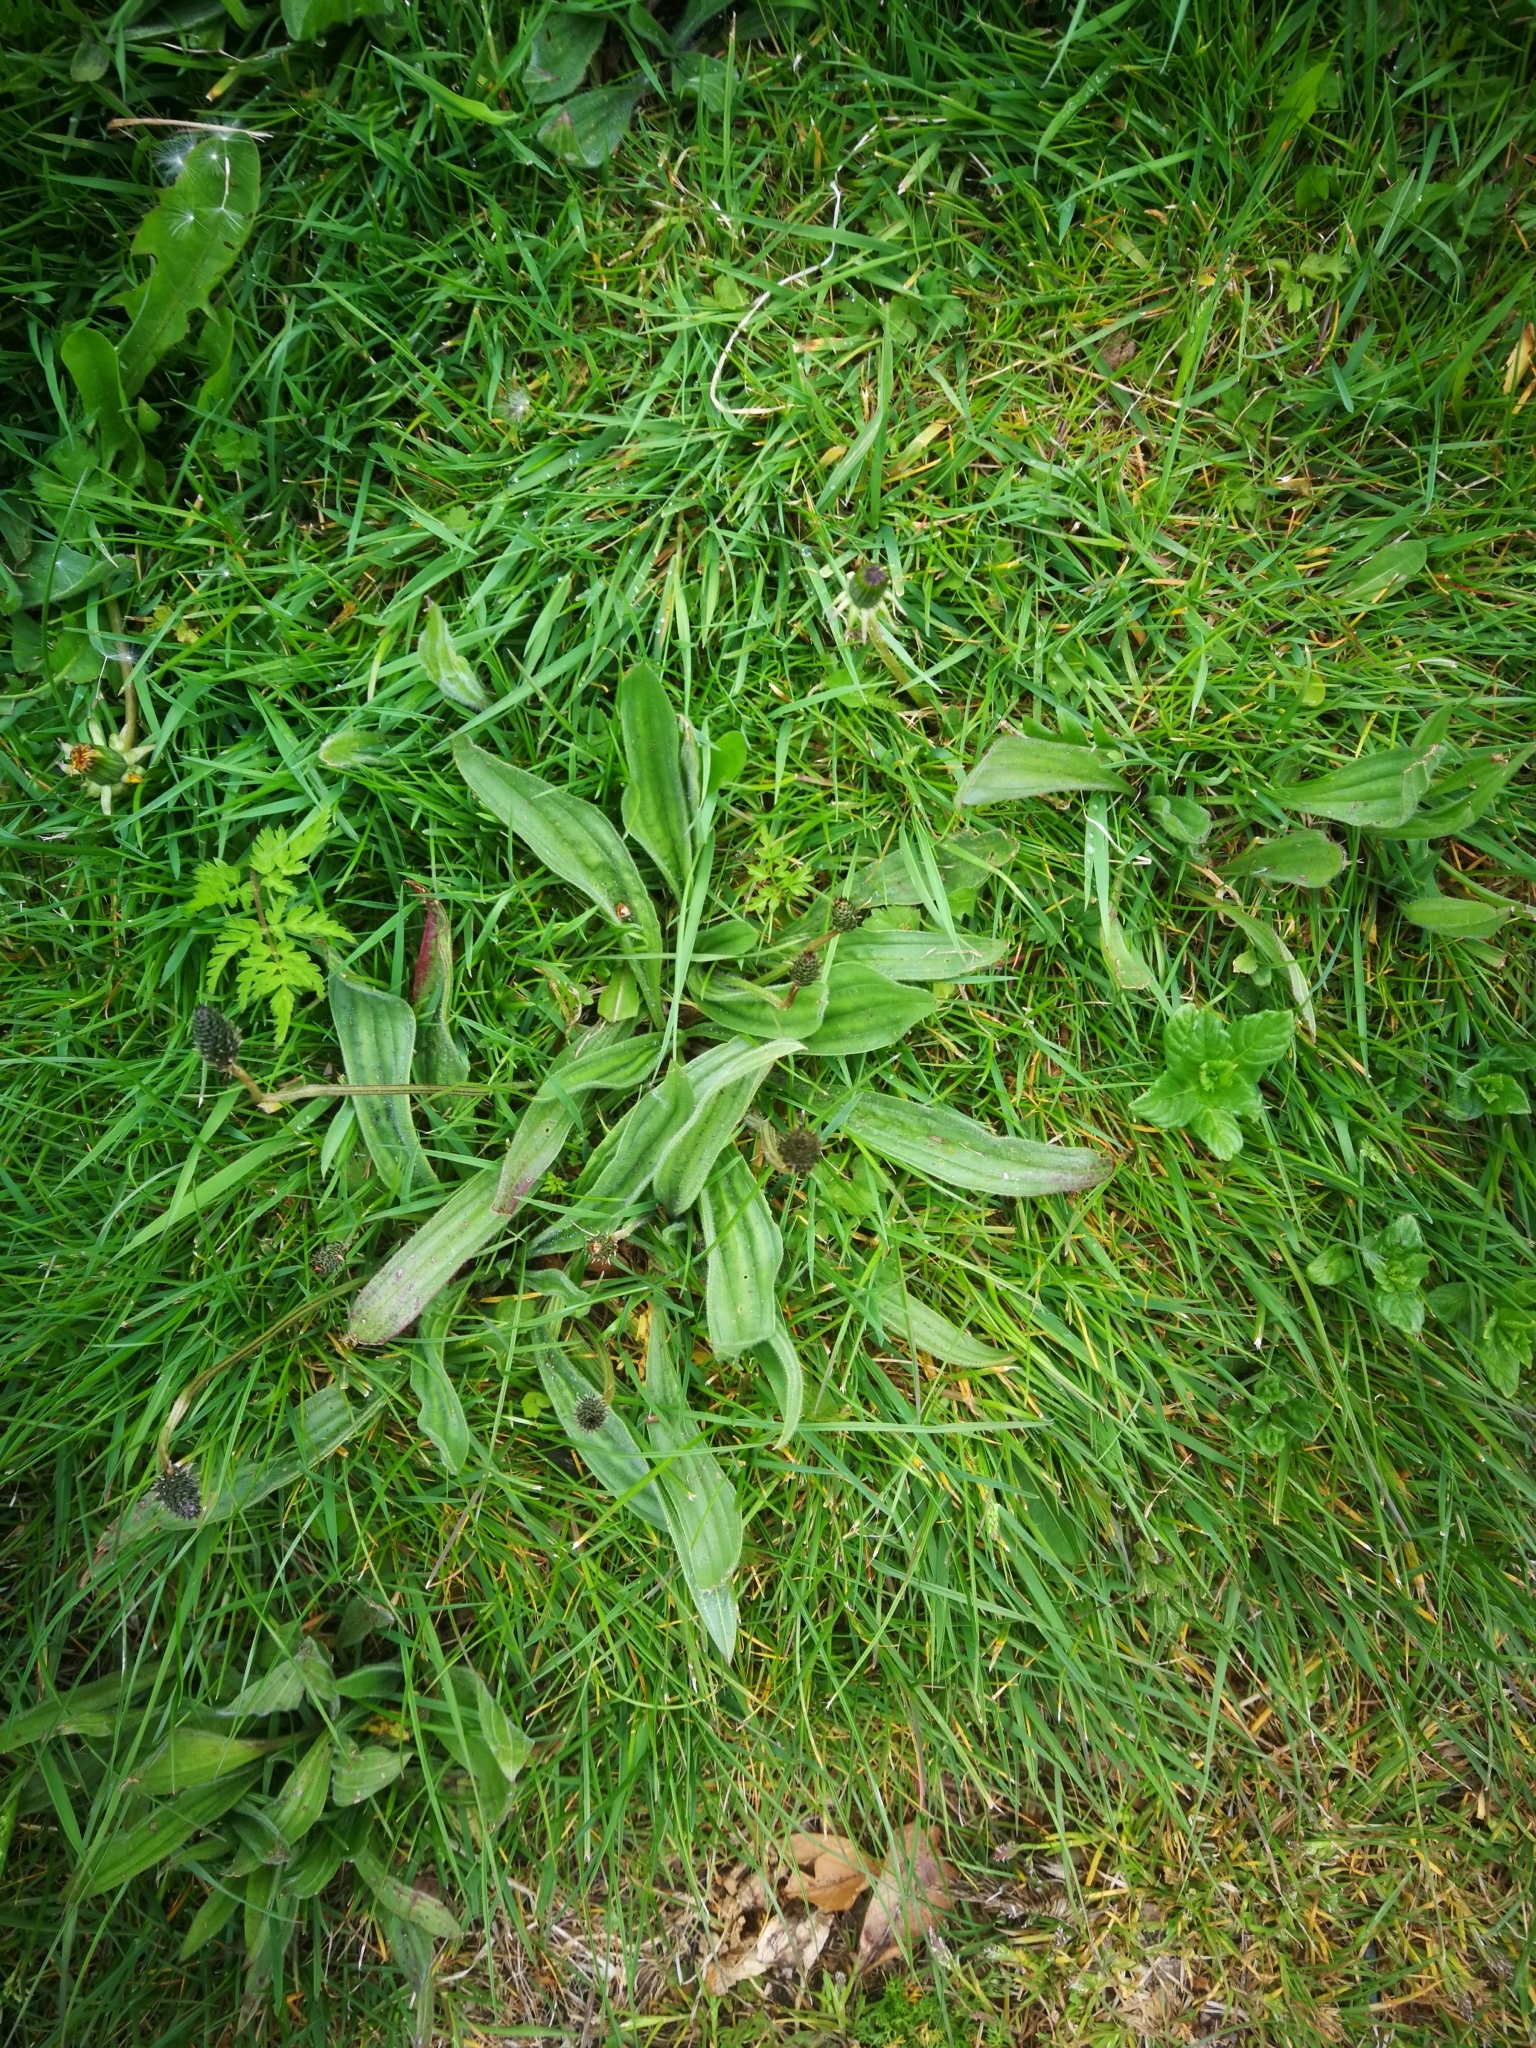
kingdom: Plantae
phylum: Tracheophyta
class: Magnoliopsida
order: Lamiales
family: Plantaginaceae
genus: Plantago
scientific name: Plantago lanceolata
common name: Ribwort plantain
